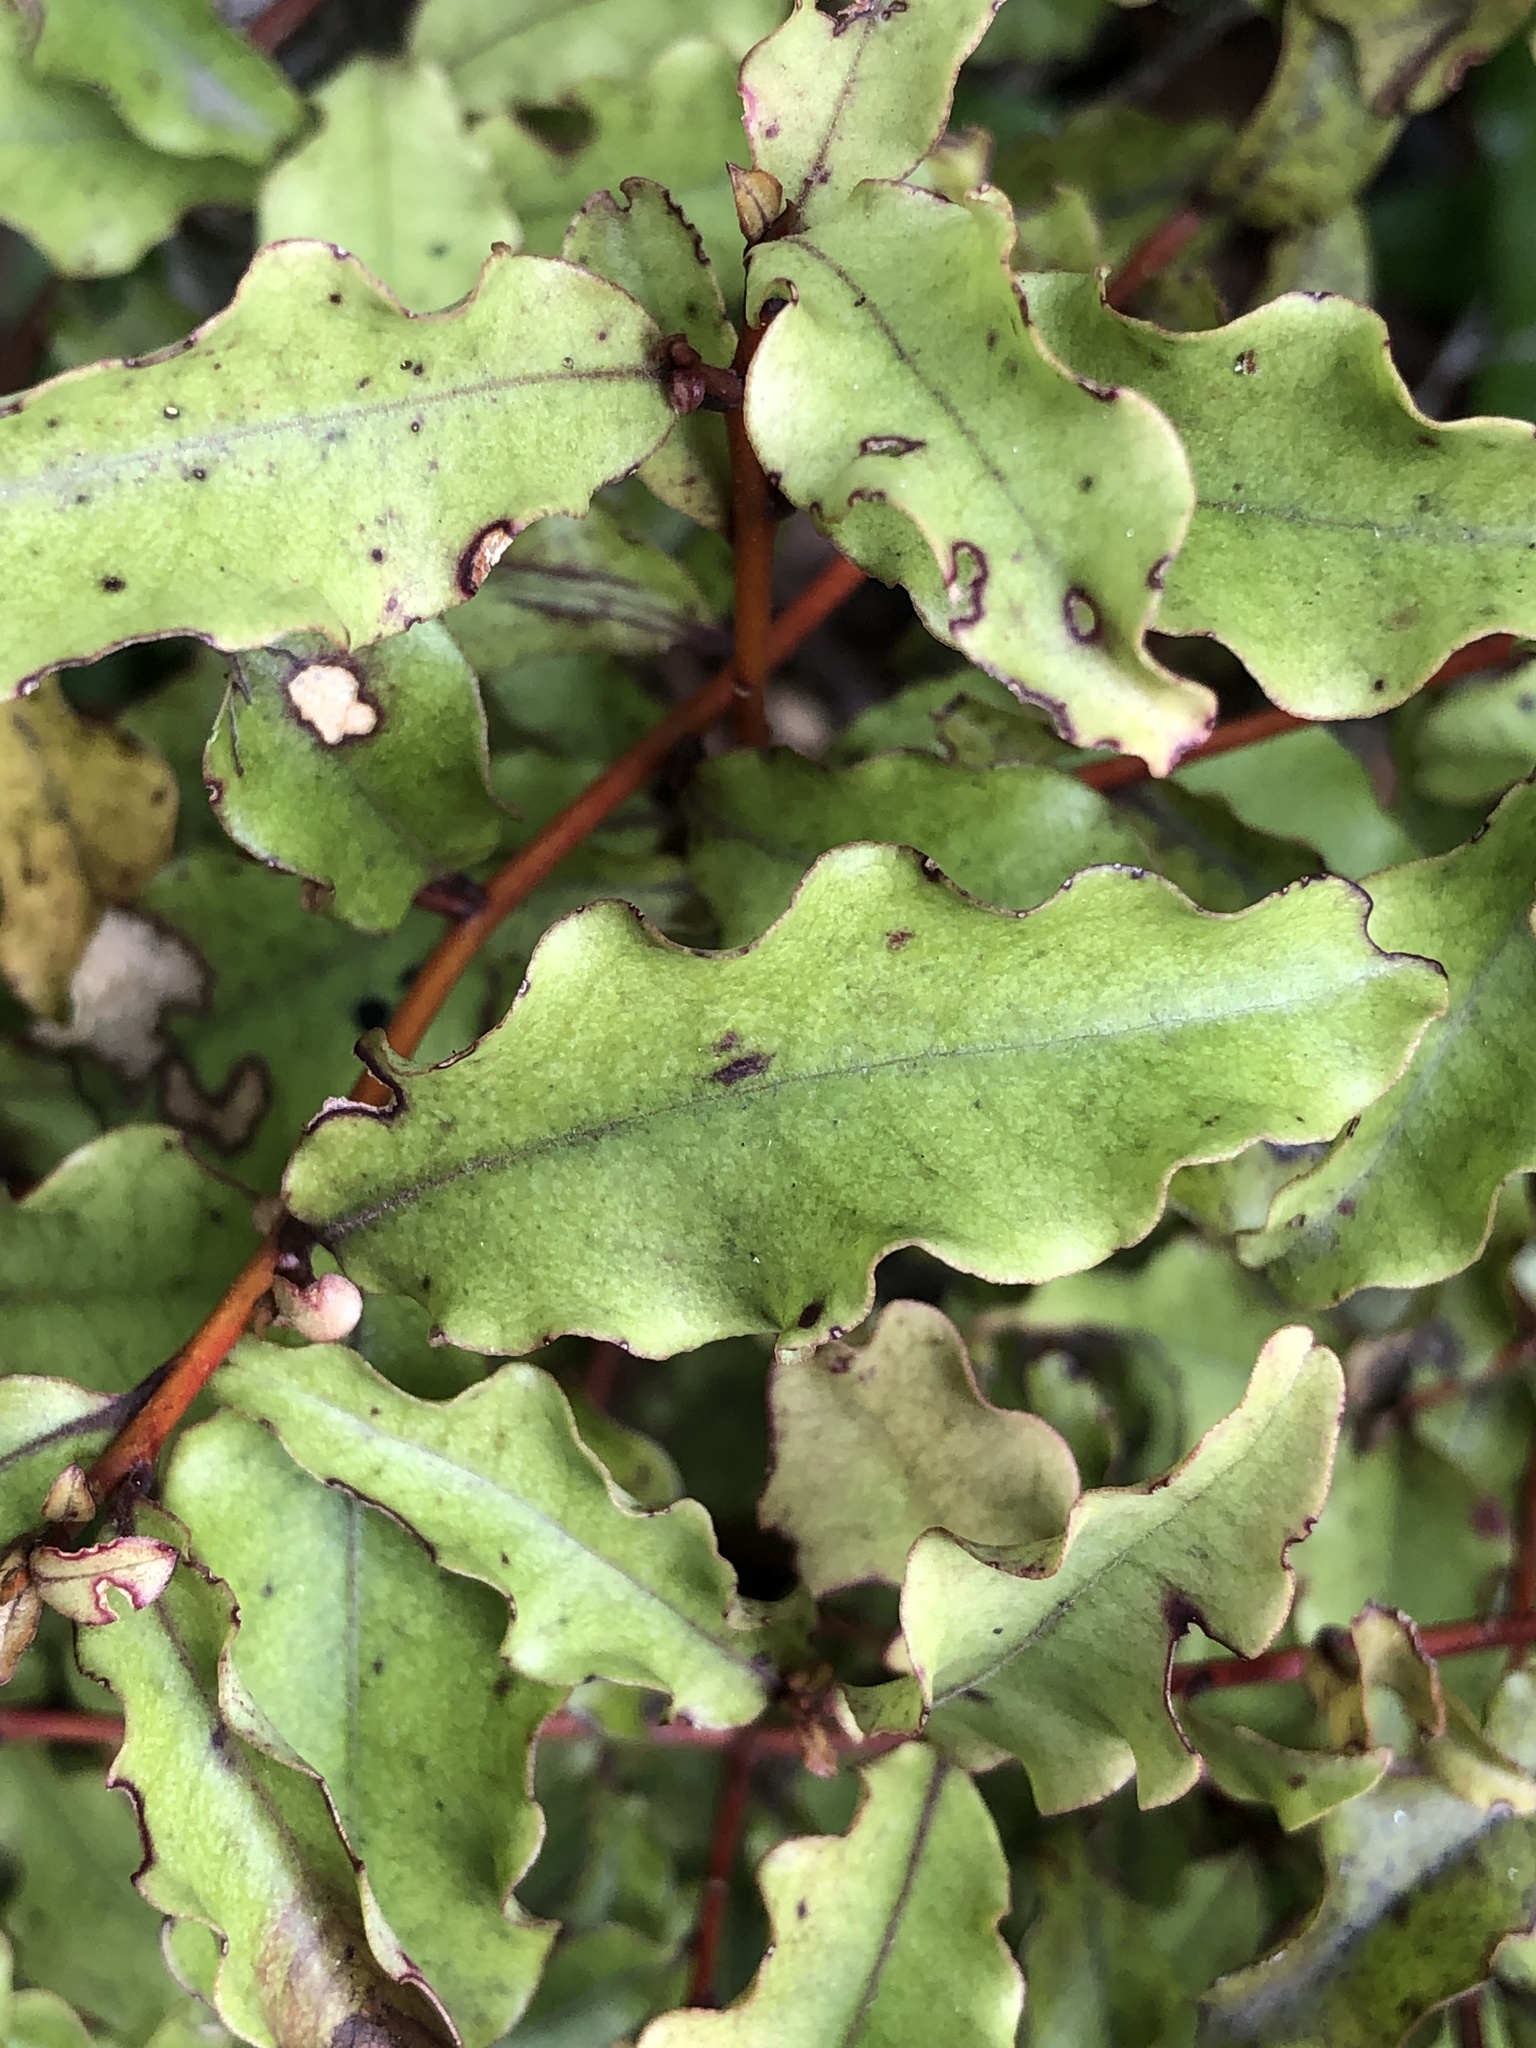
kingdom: Plantae
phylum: Tracheophyta
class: Magnoliopsida
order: Ericales
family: Primulaceae
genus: Myrsine
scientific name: Myrsine australis
